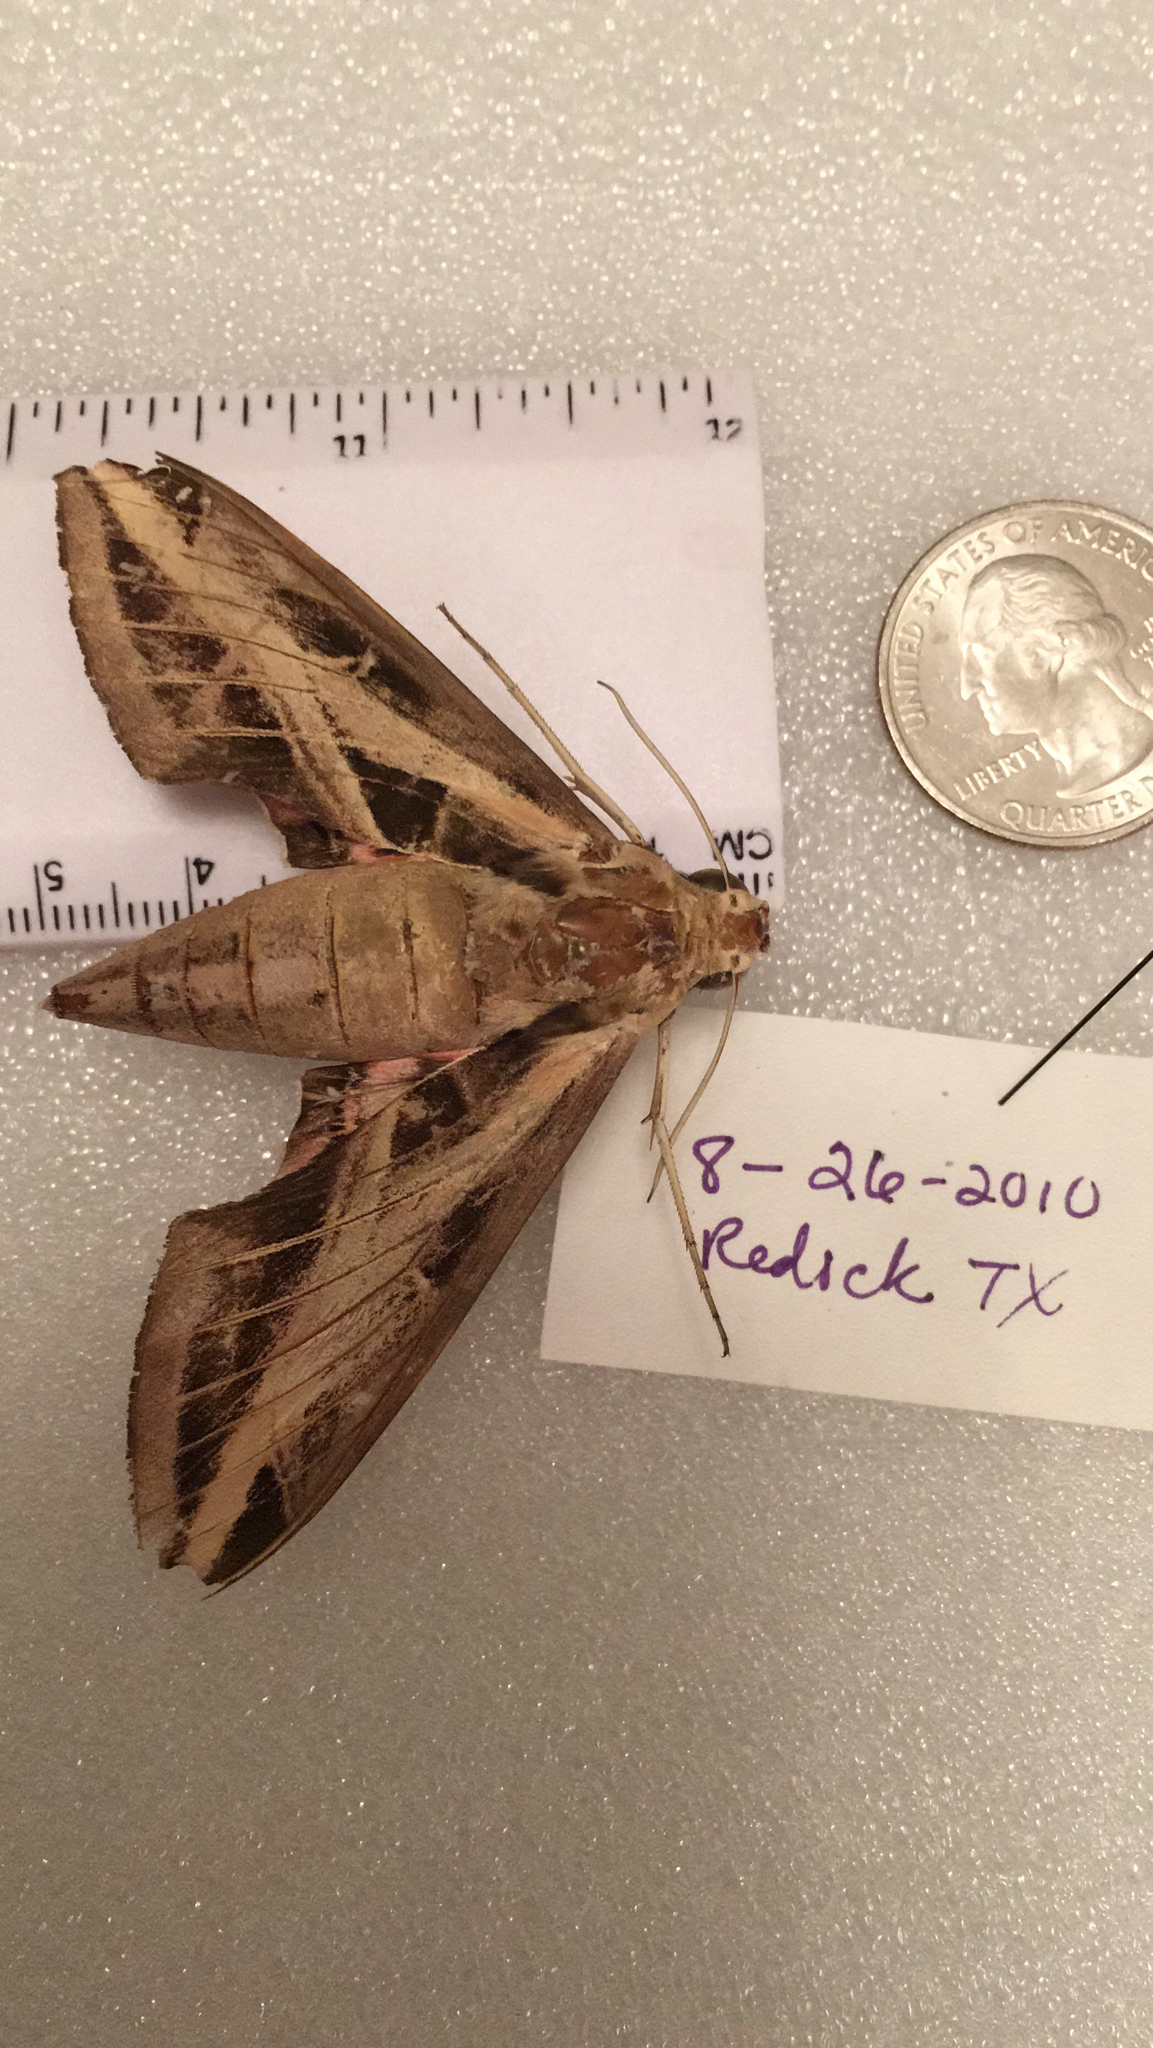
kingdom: Animalia
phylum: Arthropoda
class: Insecta
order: Lepidoptera
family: Sphingidae
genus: Eumorpha
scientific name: Eumorpha fasciatus
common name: Banded sphinx
